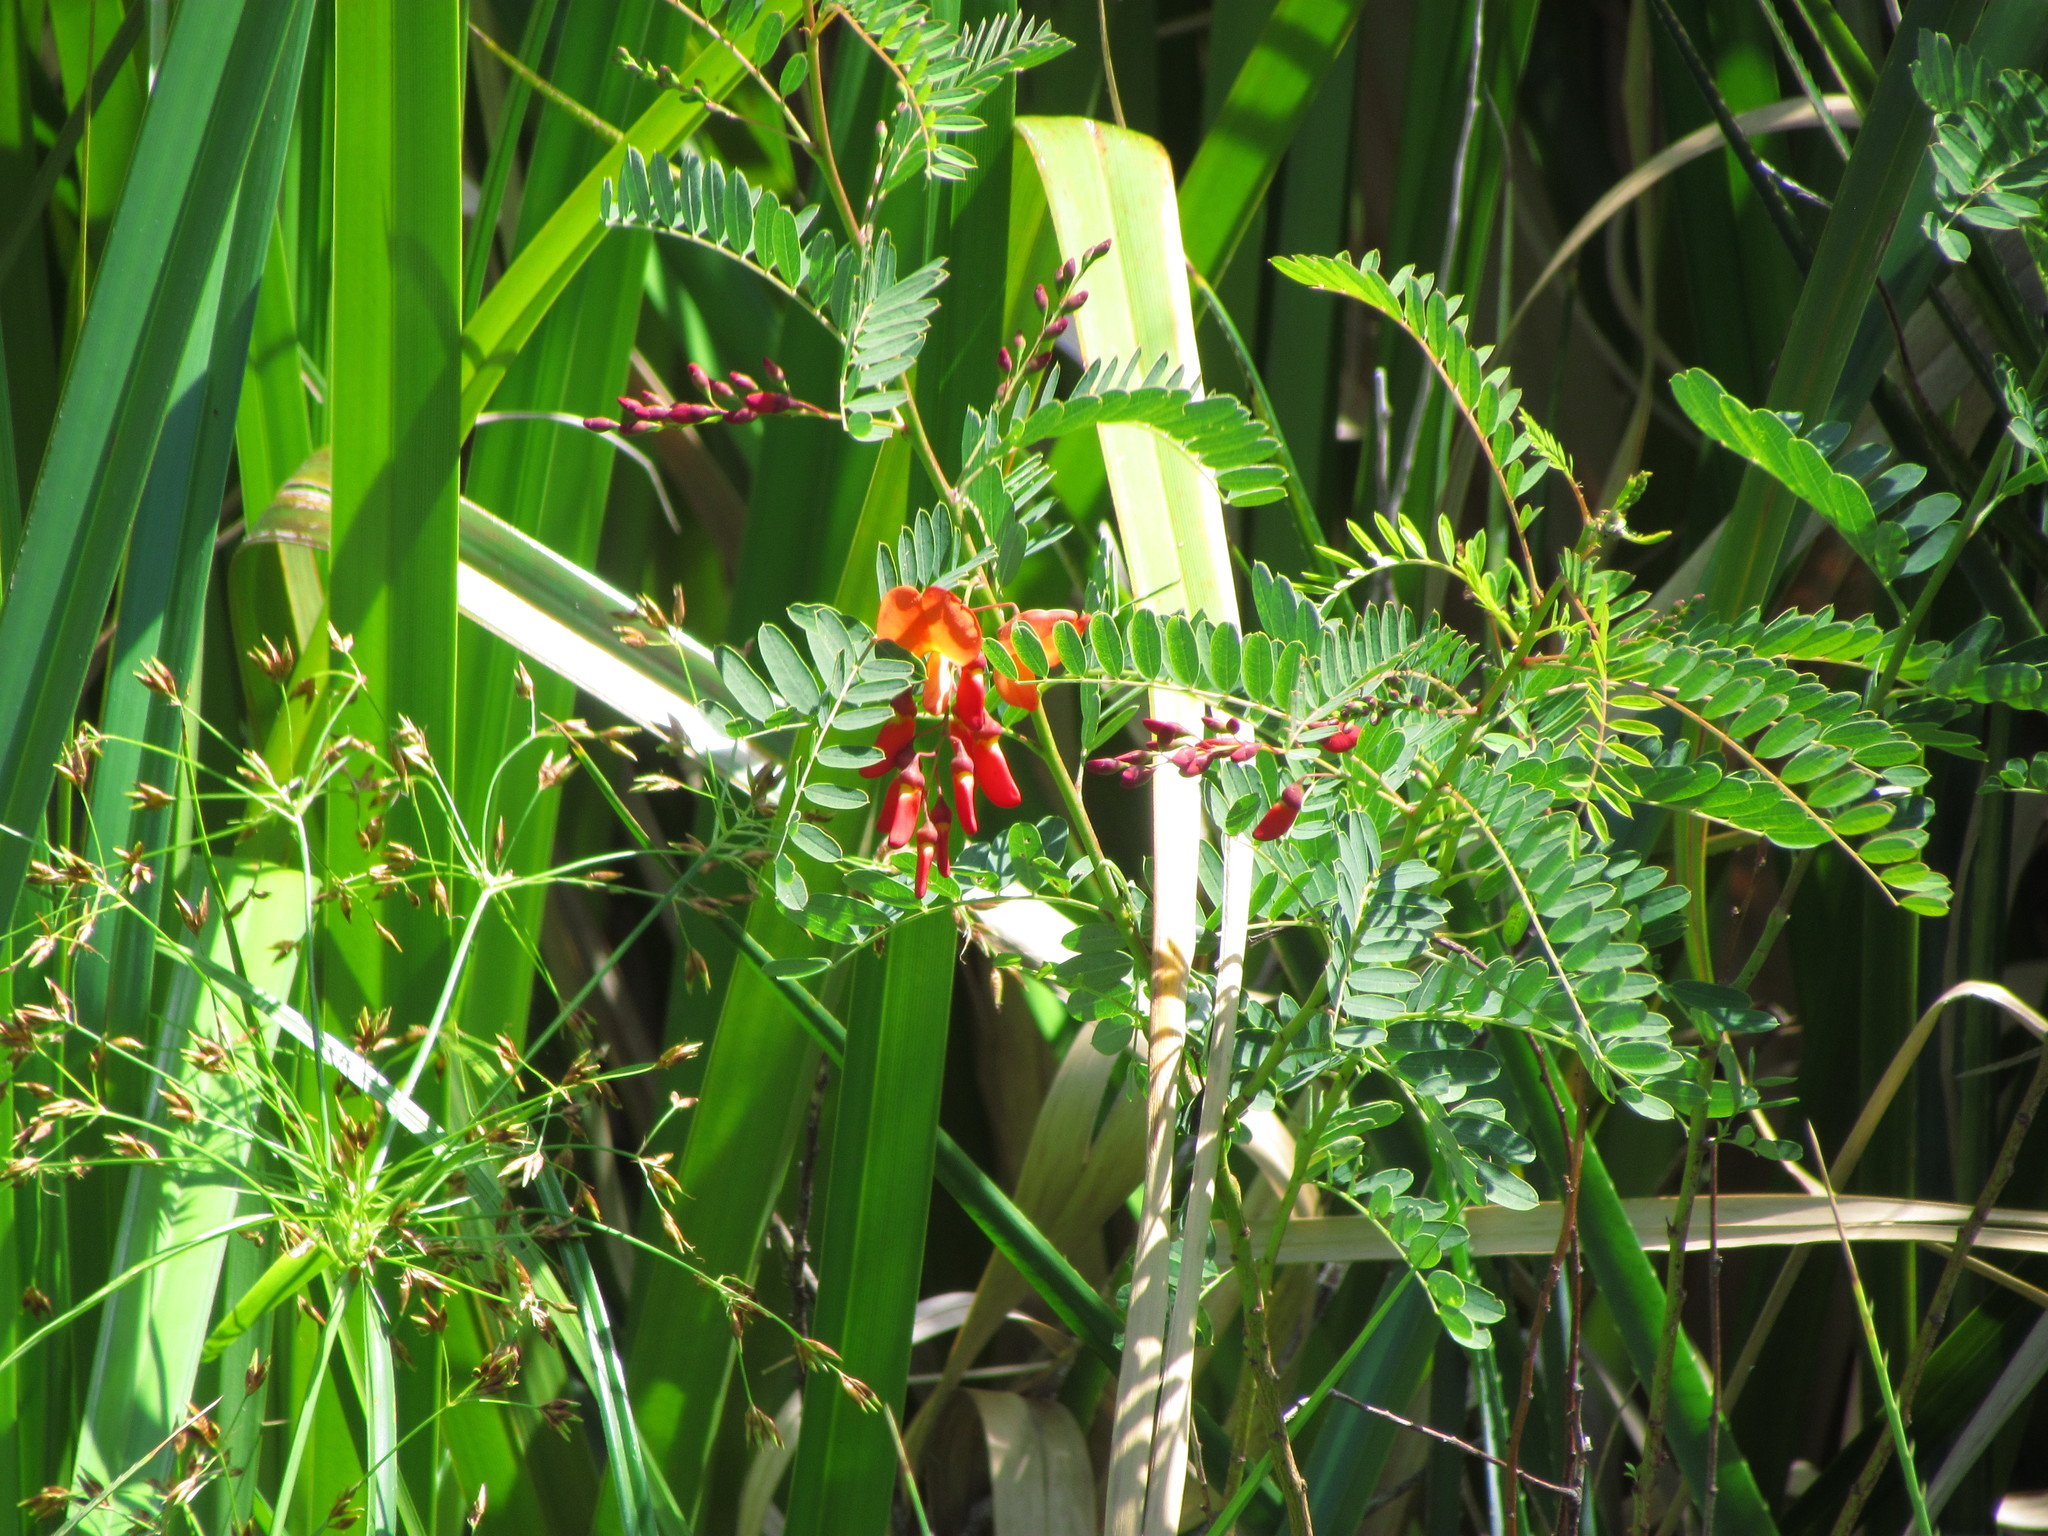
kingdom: Plantae
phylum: Tracheophyta
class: Magnoliopsida
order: Fabales
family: Fabaceae
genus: Sesbania
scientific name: Sesbania punicea
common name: Rattlebox
